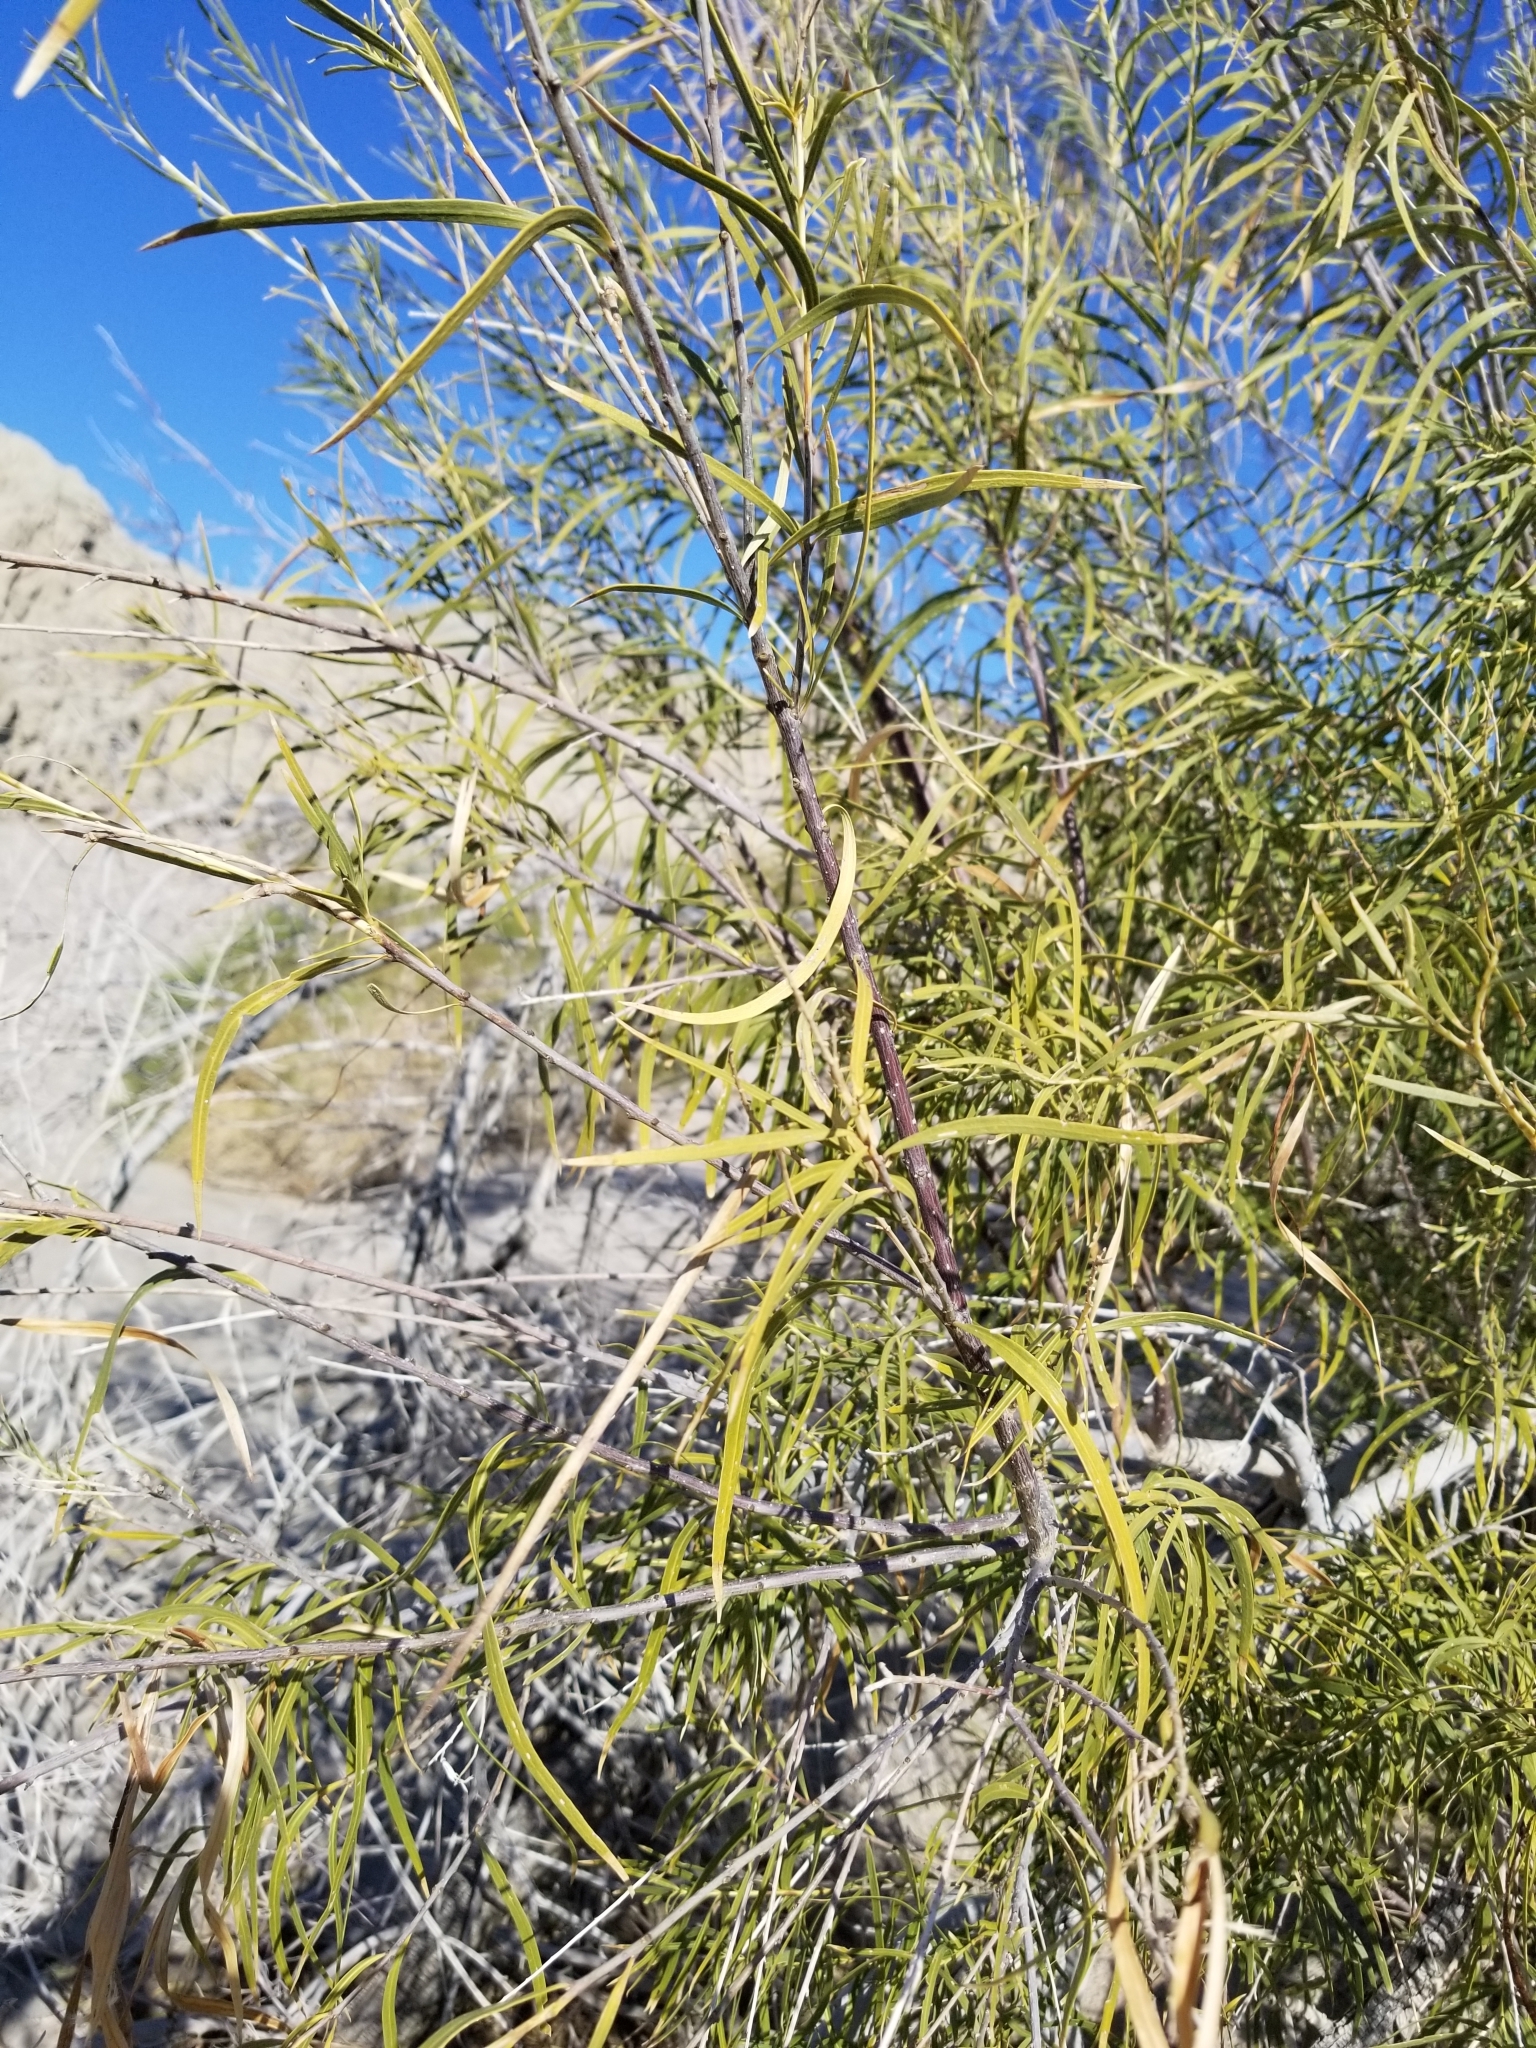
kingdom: Plantae
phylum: Tracheophyta
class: Magnoliopsida
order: Lamiales
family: Bignoniaceae
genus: Chilopsis
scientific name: Chilopsis linearis
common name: Desert-willow
